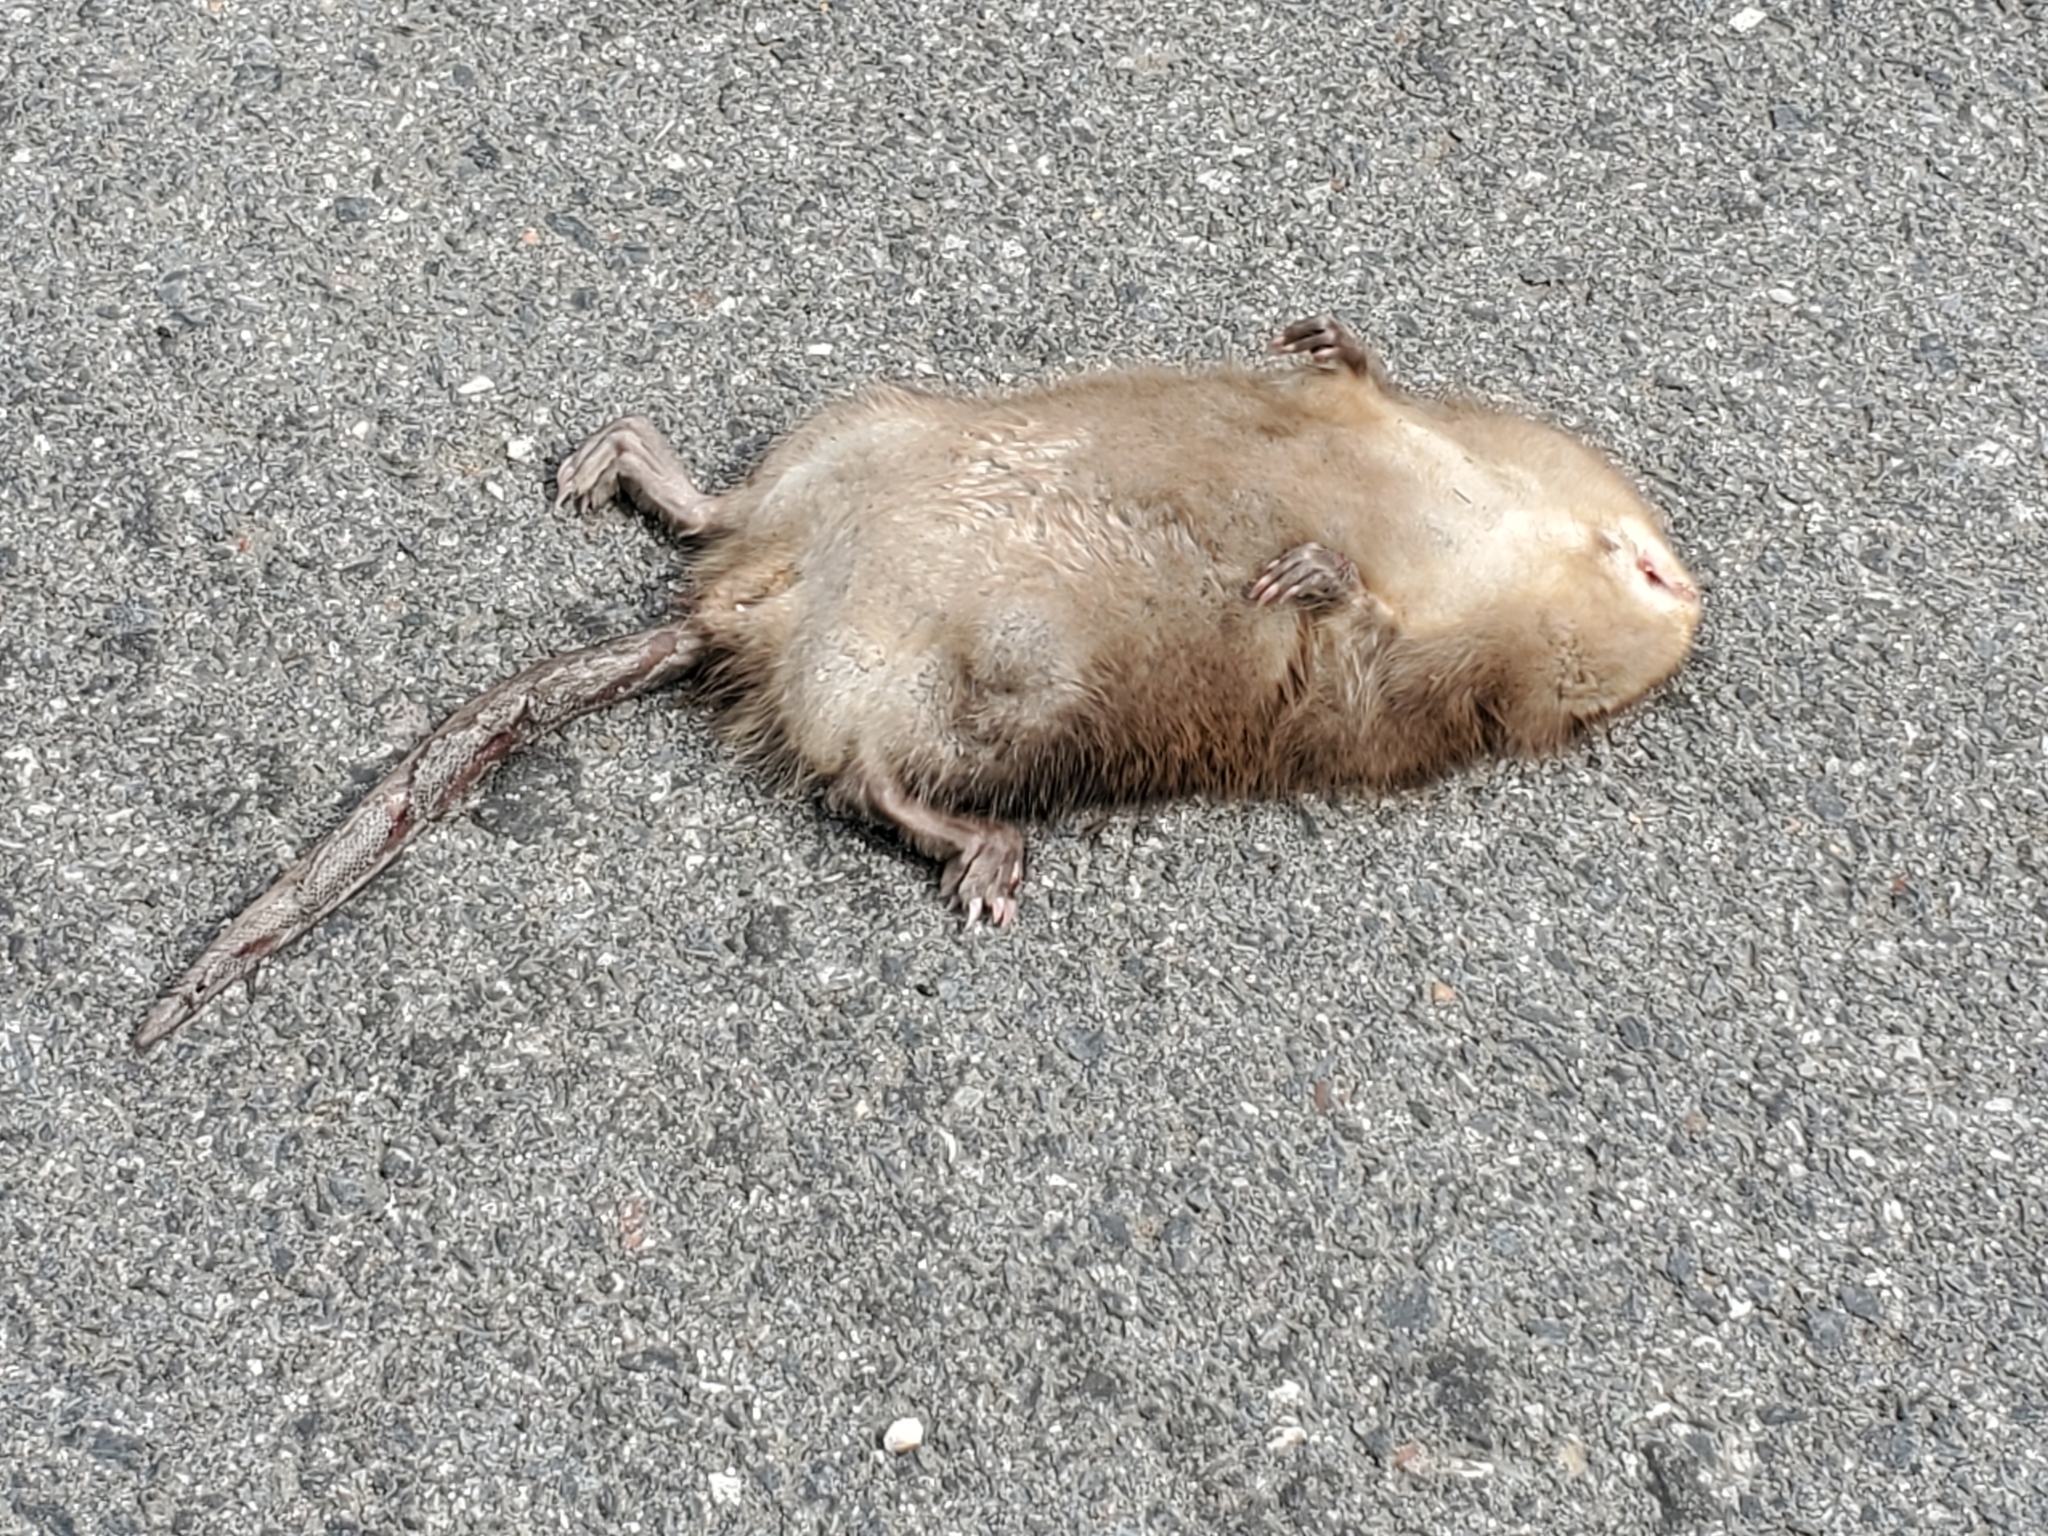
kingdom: Animalia
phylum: Chordata
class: Mammalia
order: Rodentia
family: Cricetidae
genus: Ondatra
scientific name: Ondatra zibethicus
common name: Muskrat
